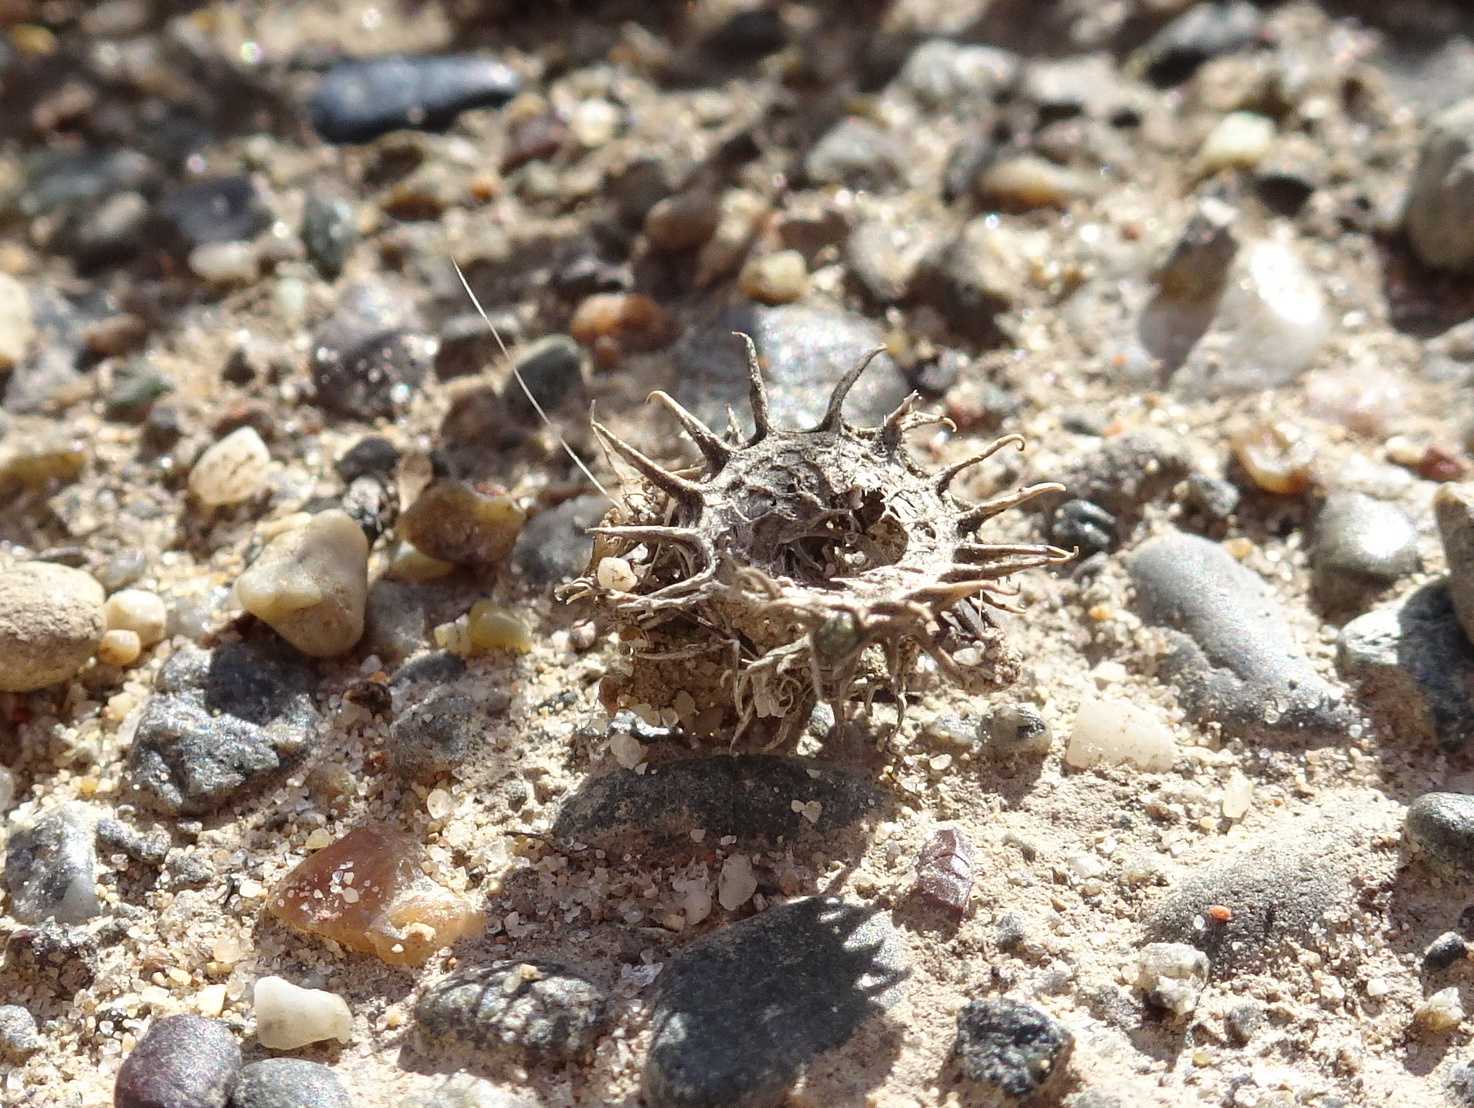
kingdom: Plantae
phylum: Tracheophyta
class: Magnoliopsida
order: Fabales
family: Fabaceae
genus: Medicago
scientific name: Medicago polymorpha
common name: Burclover
